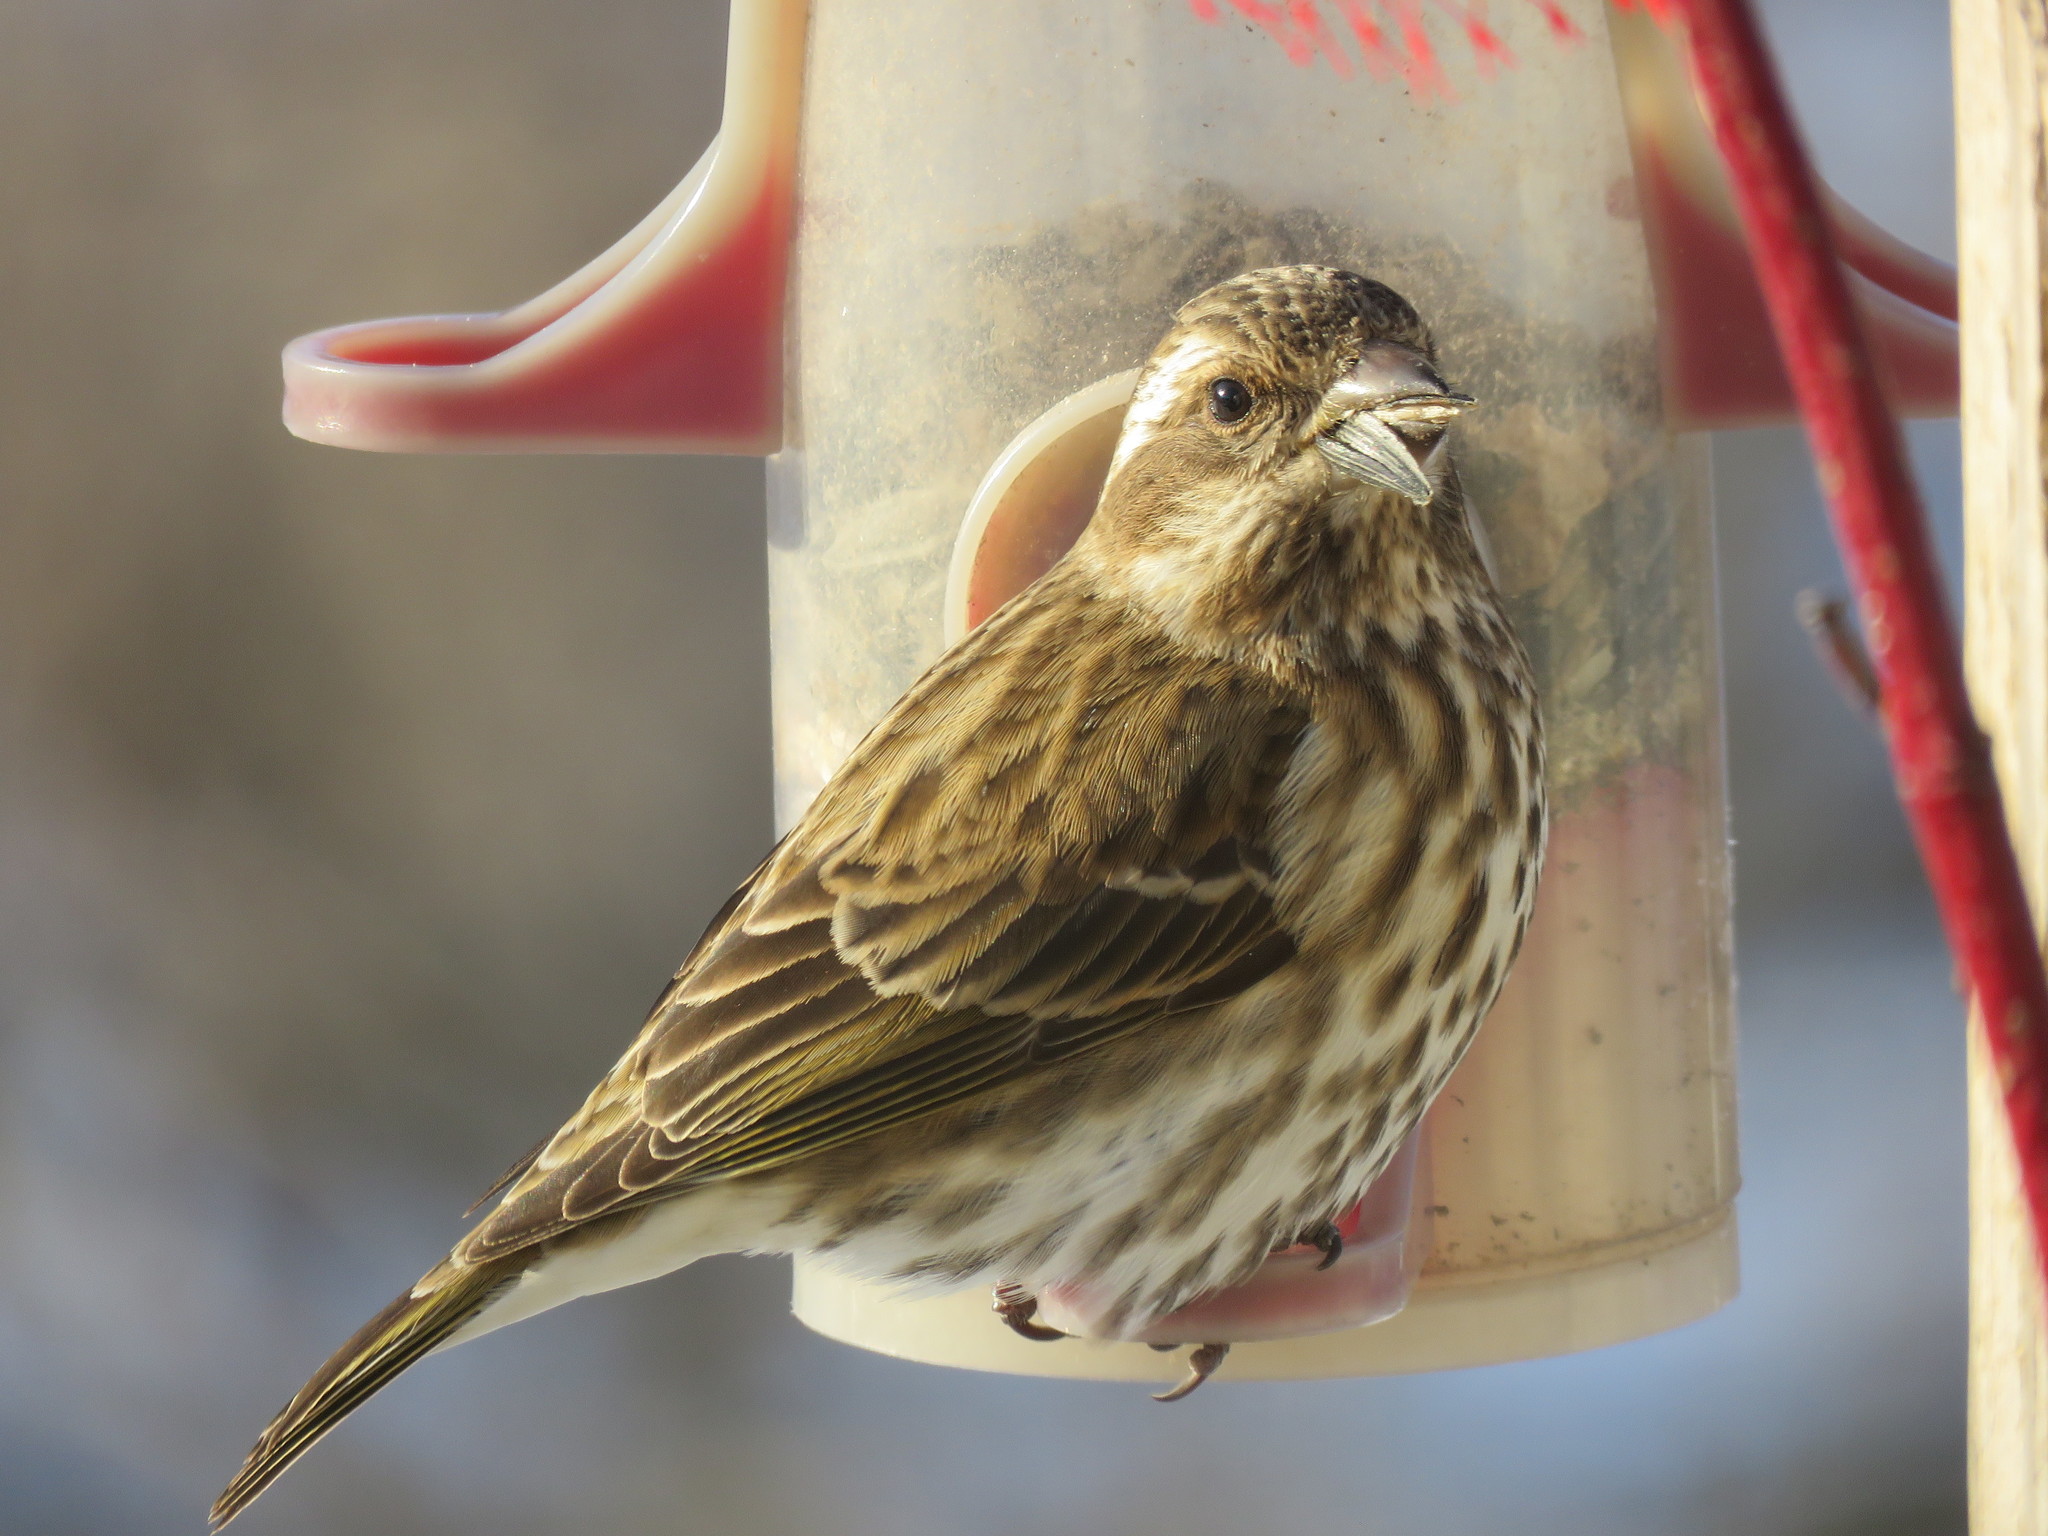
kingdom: Animalia
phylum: Chordata
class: Aves
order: Passeriformes
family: Fringillidae
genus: Haemorhous
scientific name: Haemorhous purpureus
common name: Purple finch
